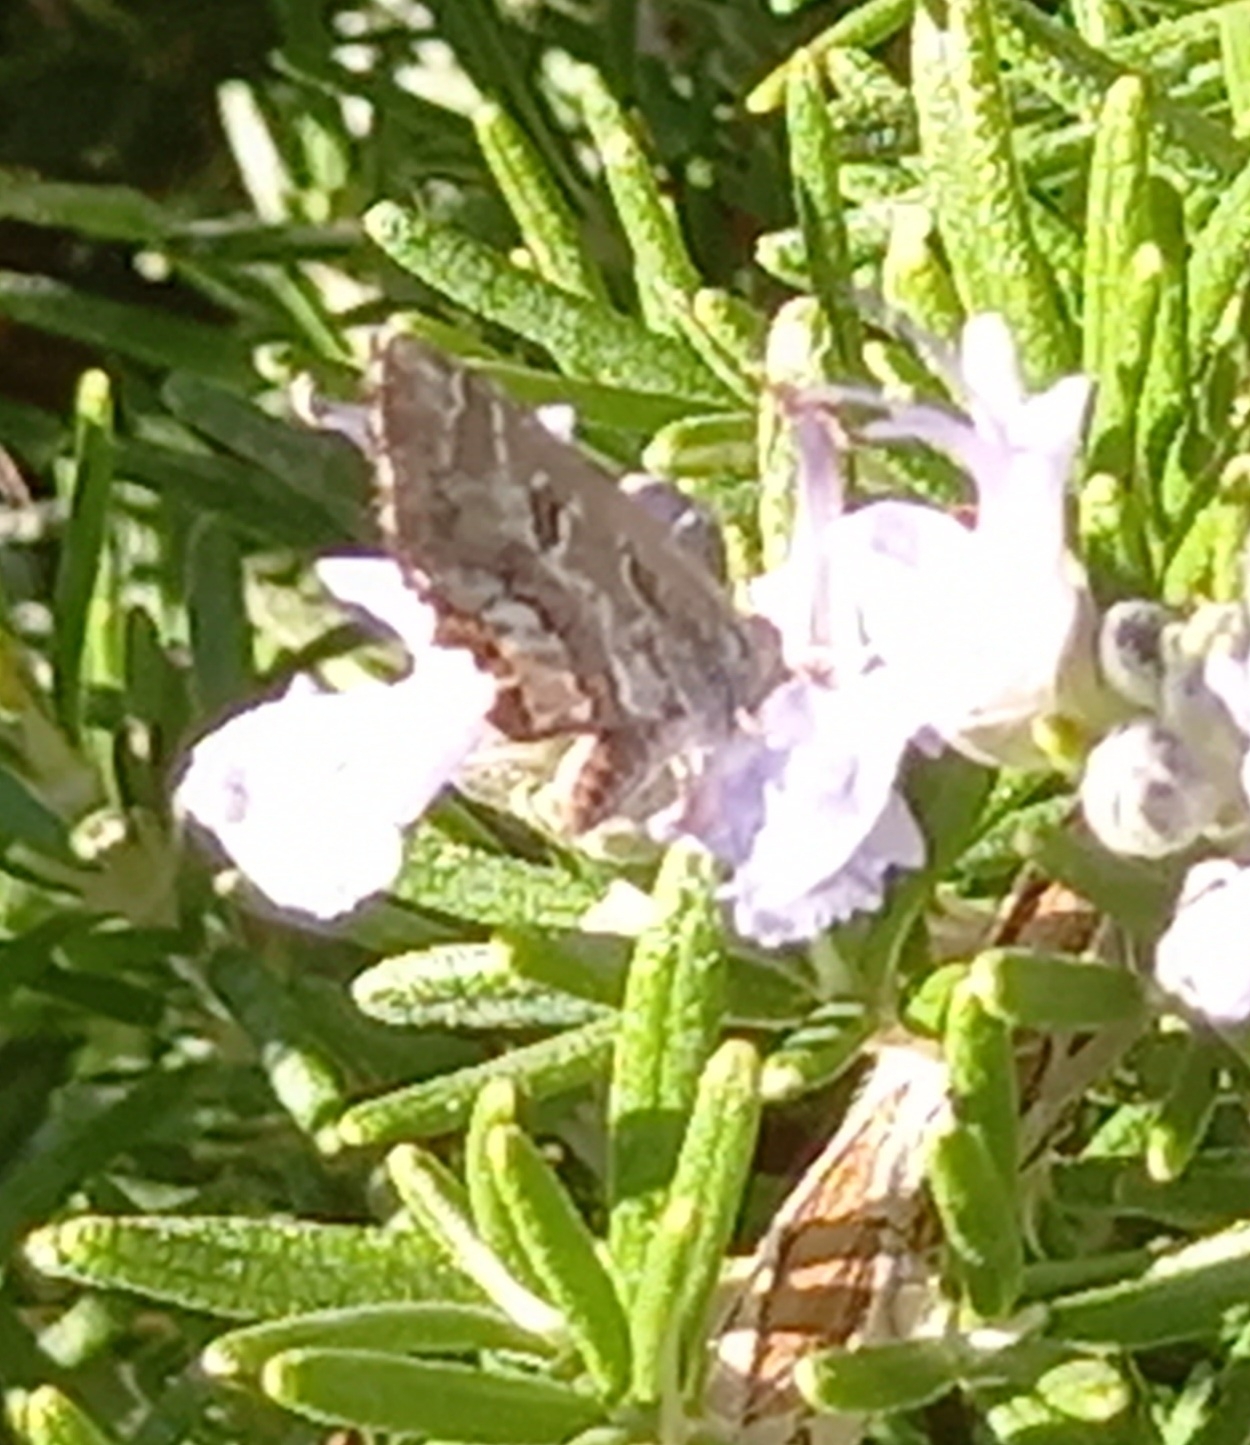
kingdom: Animalia
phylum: Arthropoda
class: Insecta
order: Lepidoptera
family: Lycaenidae
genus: Cacyreus
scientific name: Cacyreus marshalli
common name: Geranium bronze
